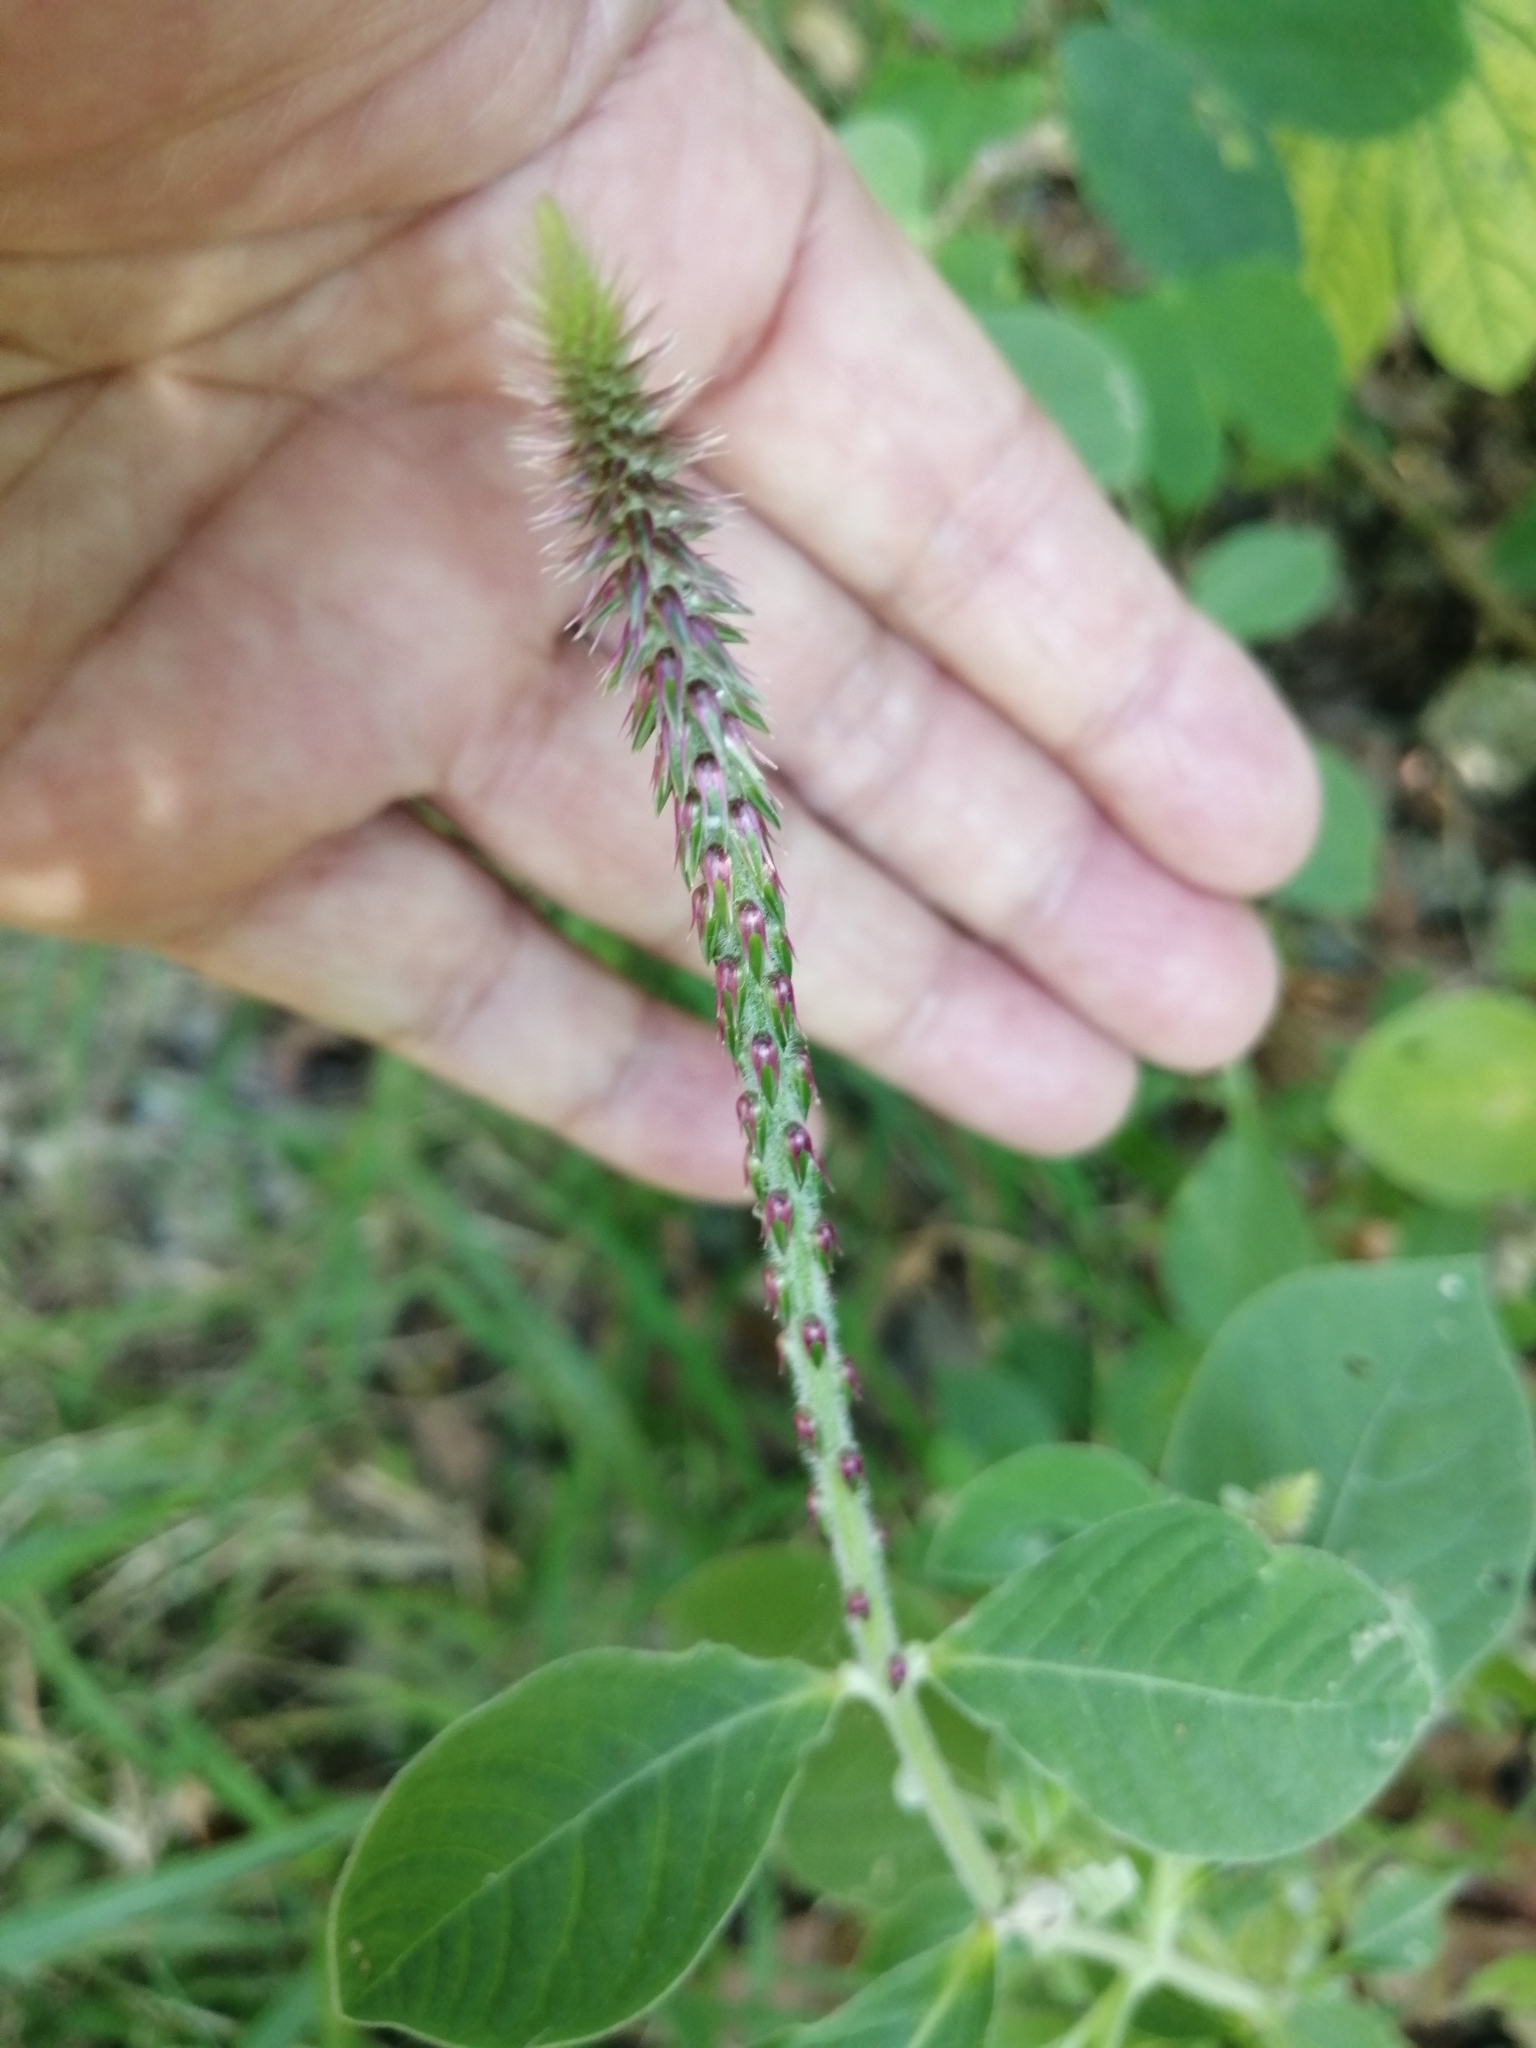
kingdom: Plantae
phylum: Tracheophyta
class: Magnoliopsida
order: Caryophyllales
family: Amaranthaceae
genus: Achyranthes
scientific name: Achyranthes aspera
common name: Devil's horsewhip
